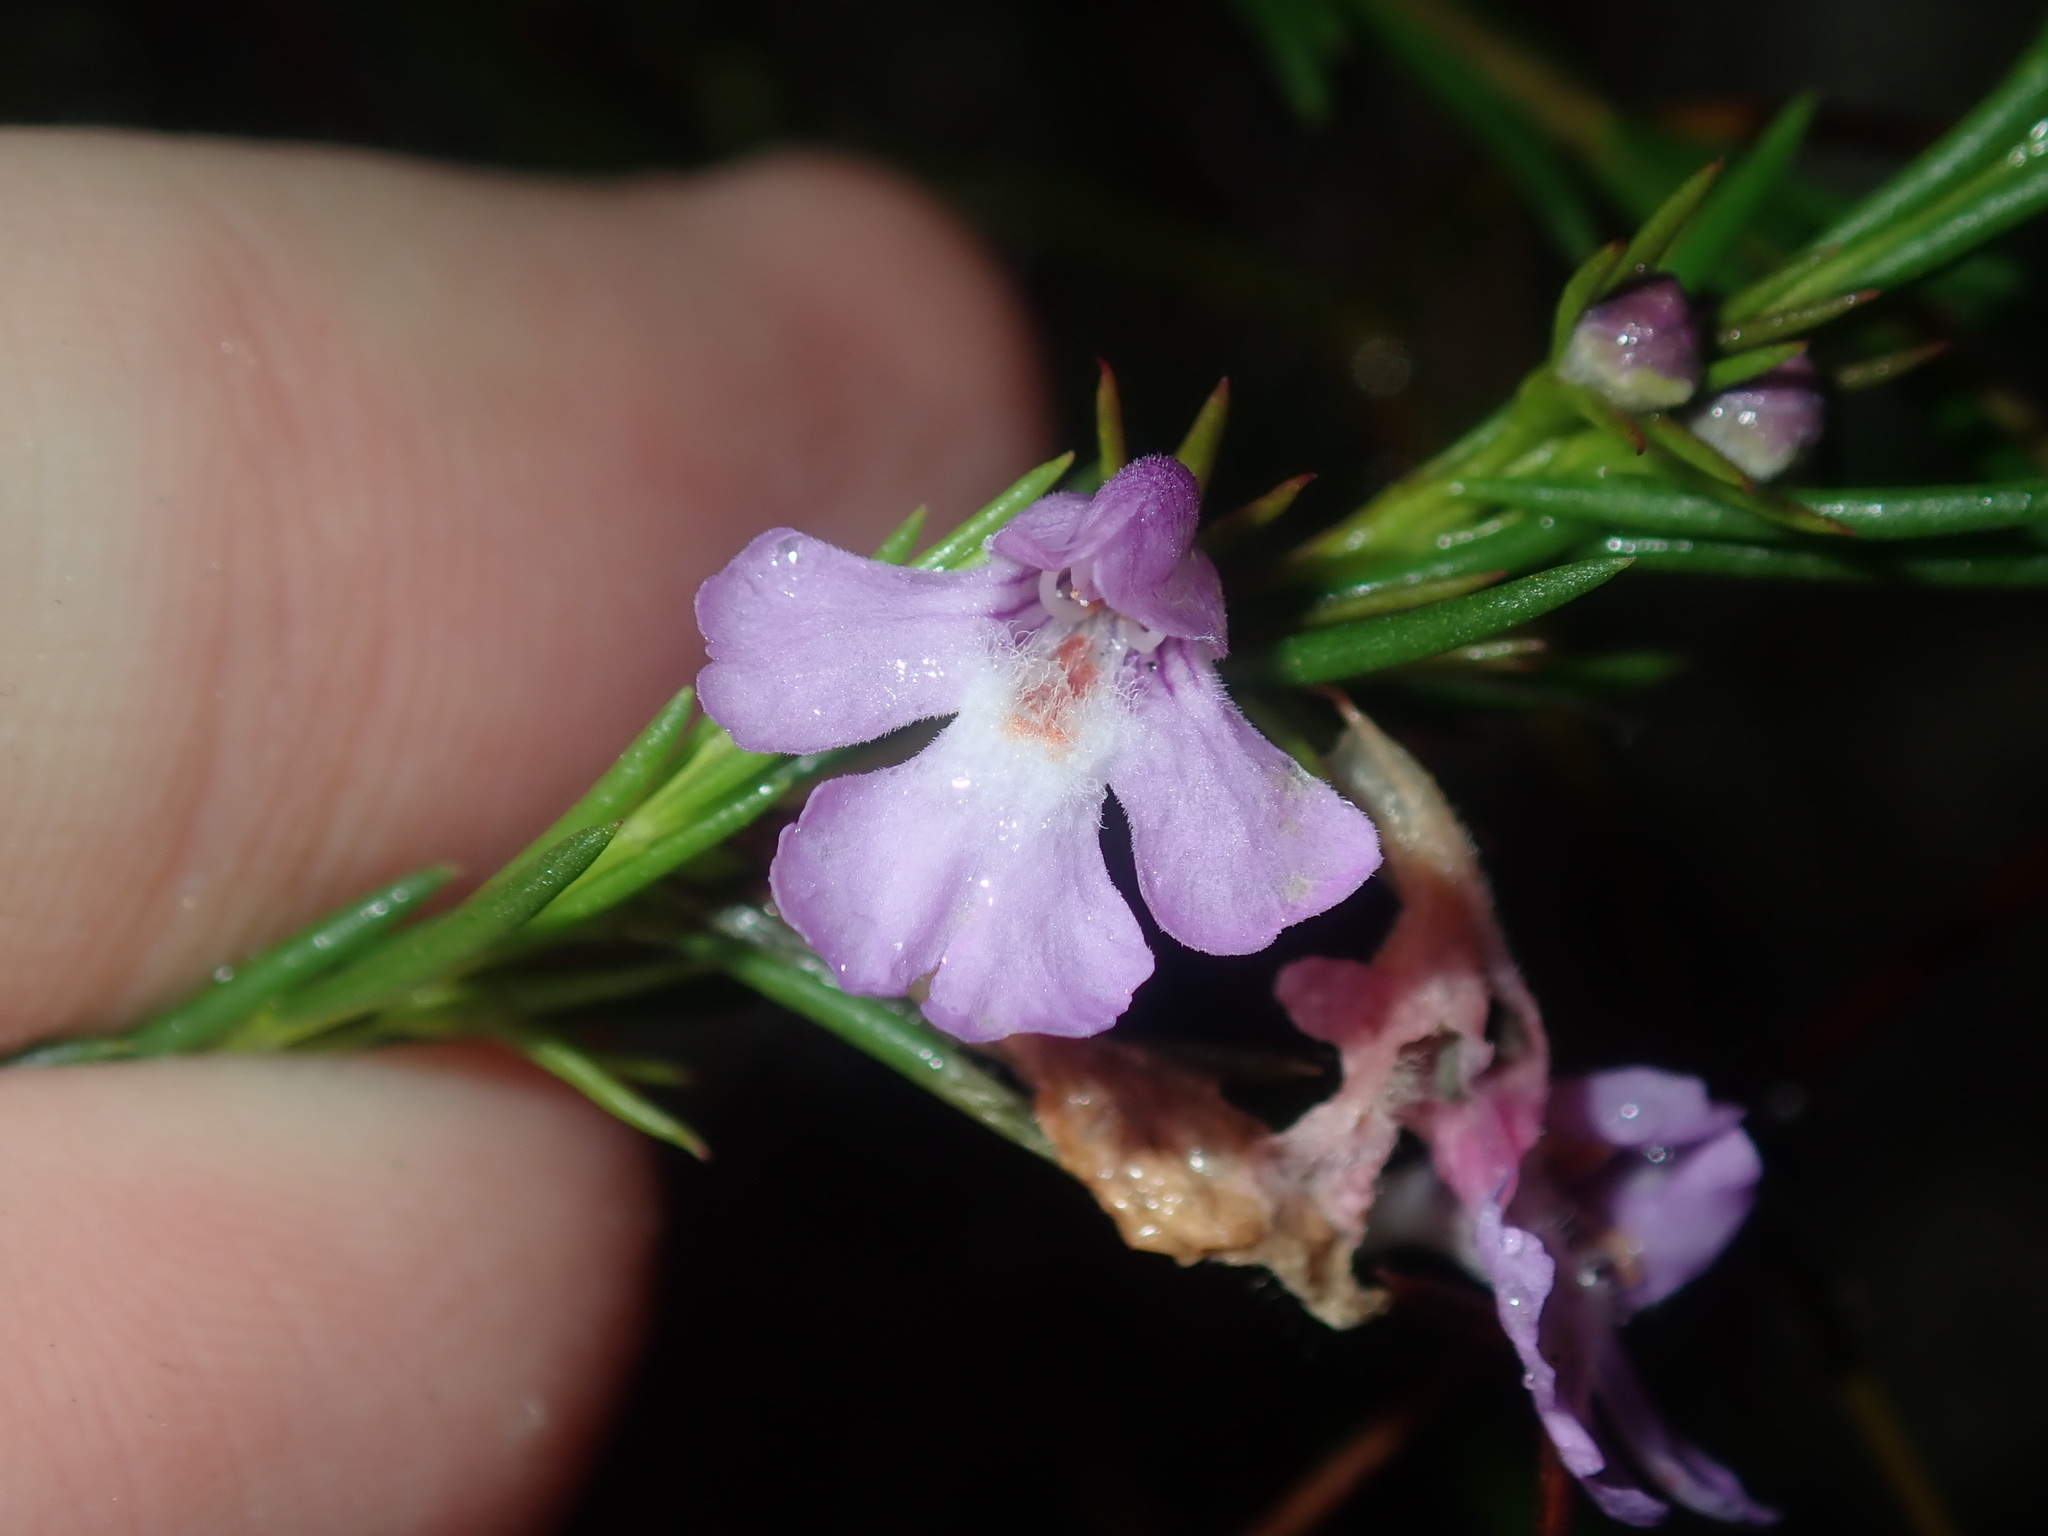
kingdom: Plantae
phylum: Tracheophyta
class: Magnoliopsida
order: Lamiales
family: Lamiaceae
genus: Hemigenia
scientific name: Hemigenia purpurea
